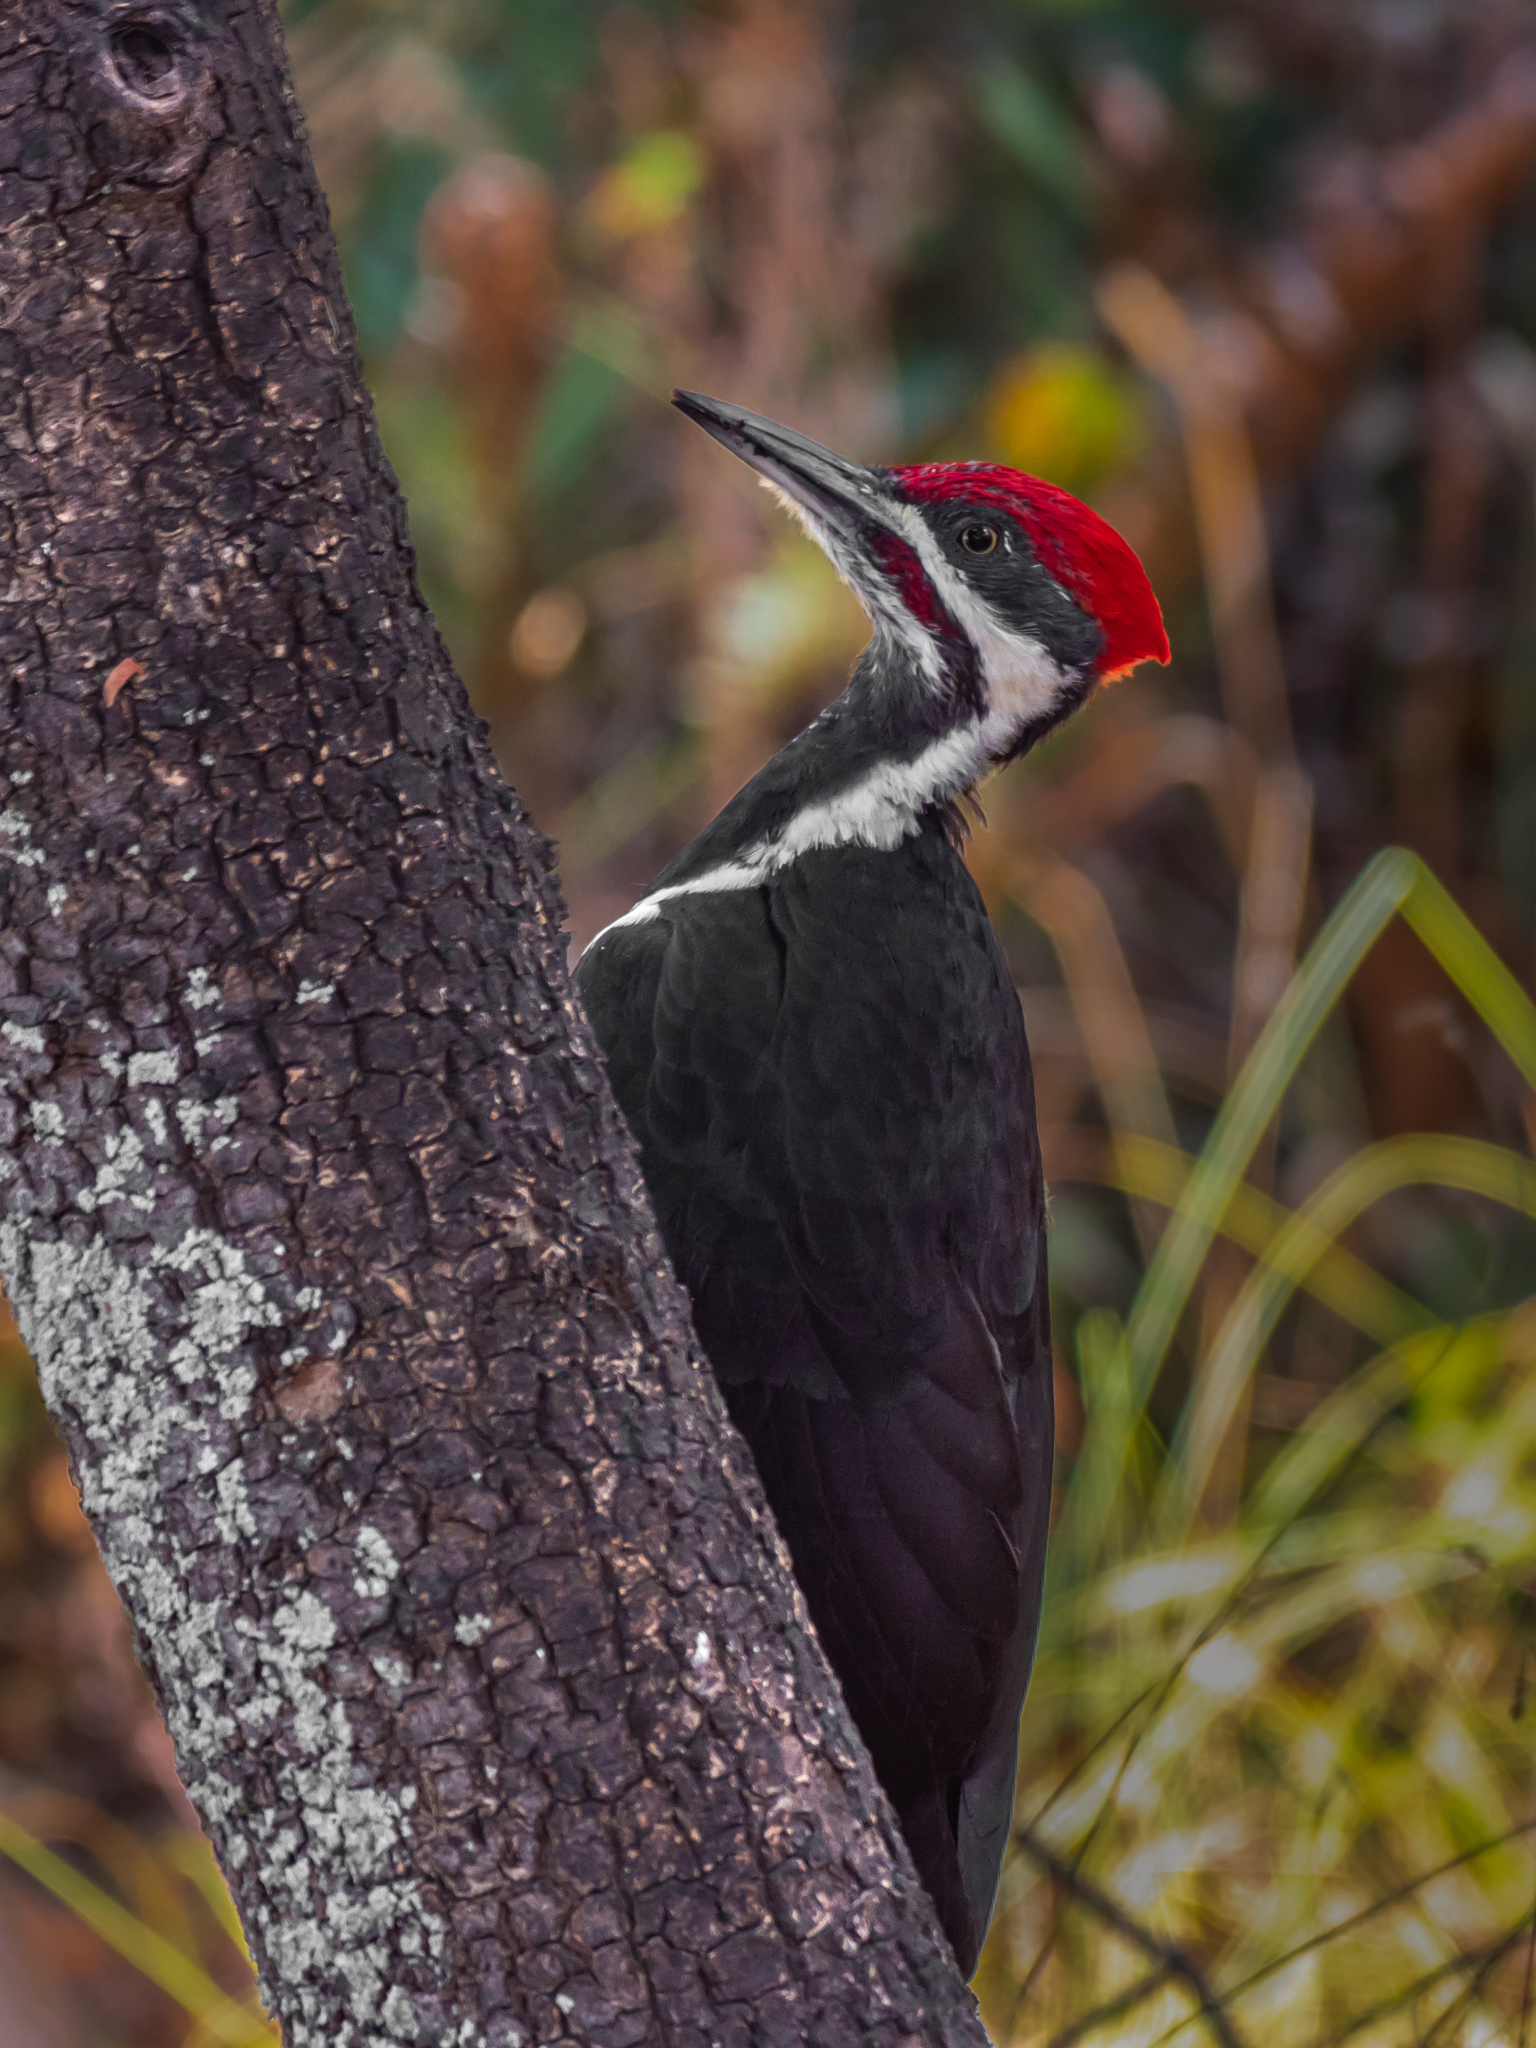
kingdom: Animalia
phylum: Chordata
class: Aves
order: Piciformes
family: Picidae
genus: Dryocopus
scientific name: Dryocopus pileatus
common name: Pileated woodpecker
